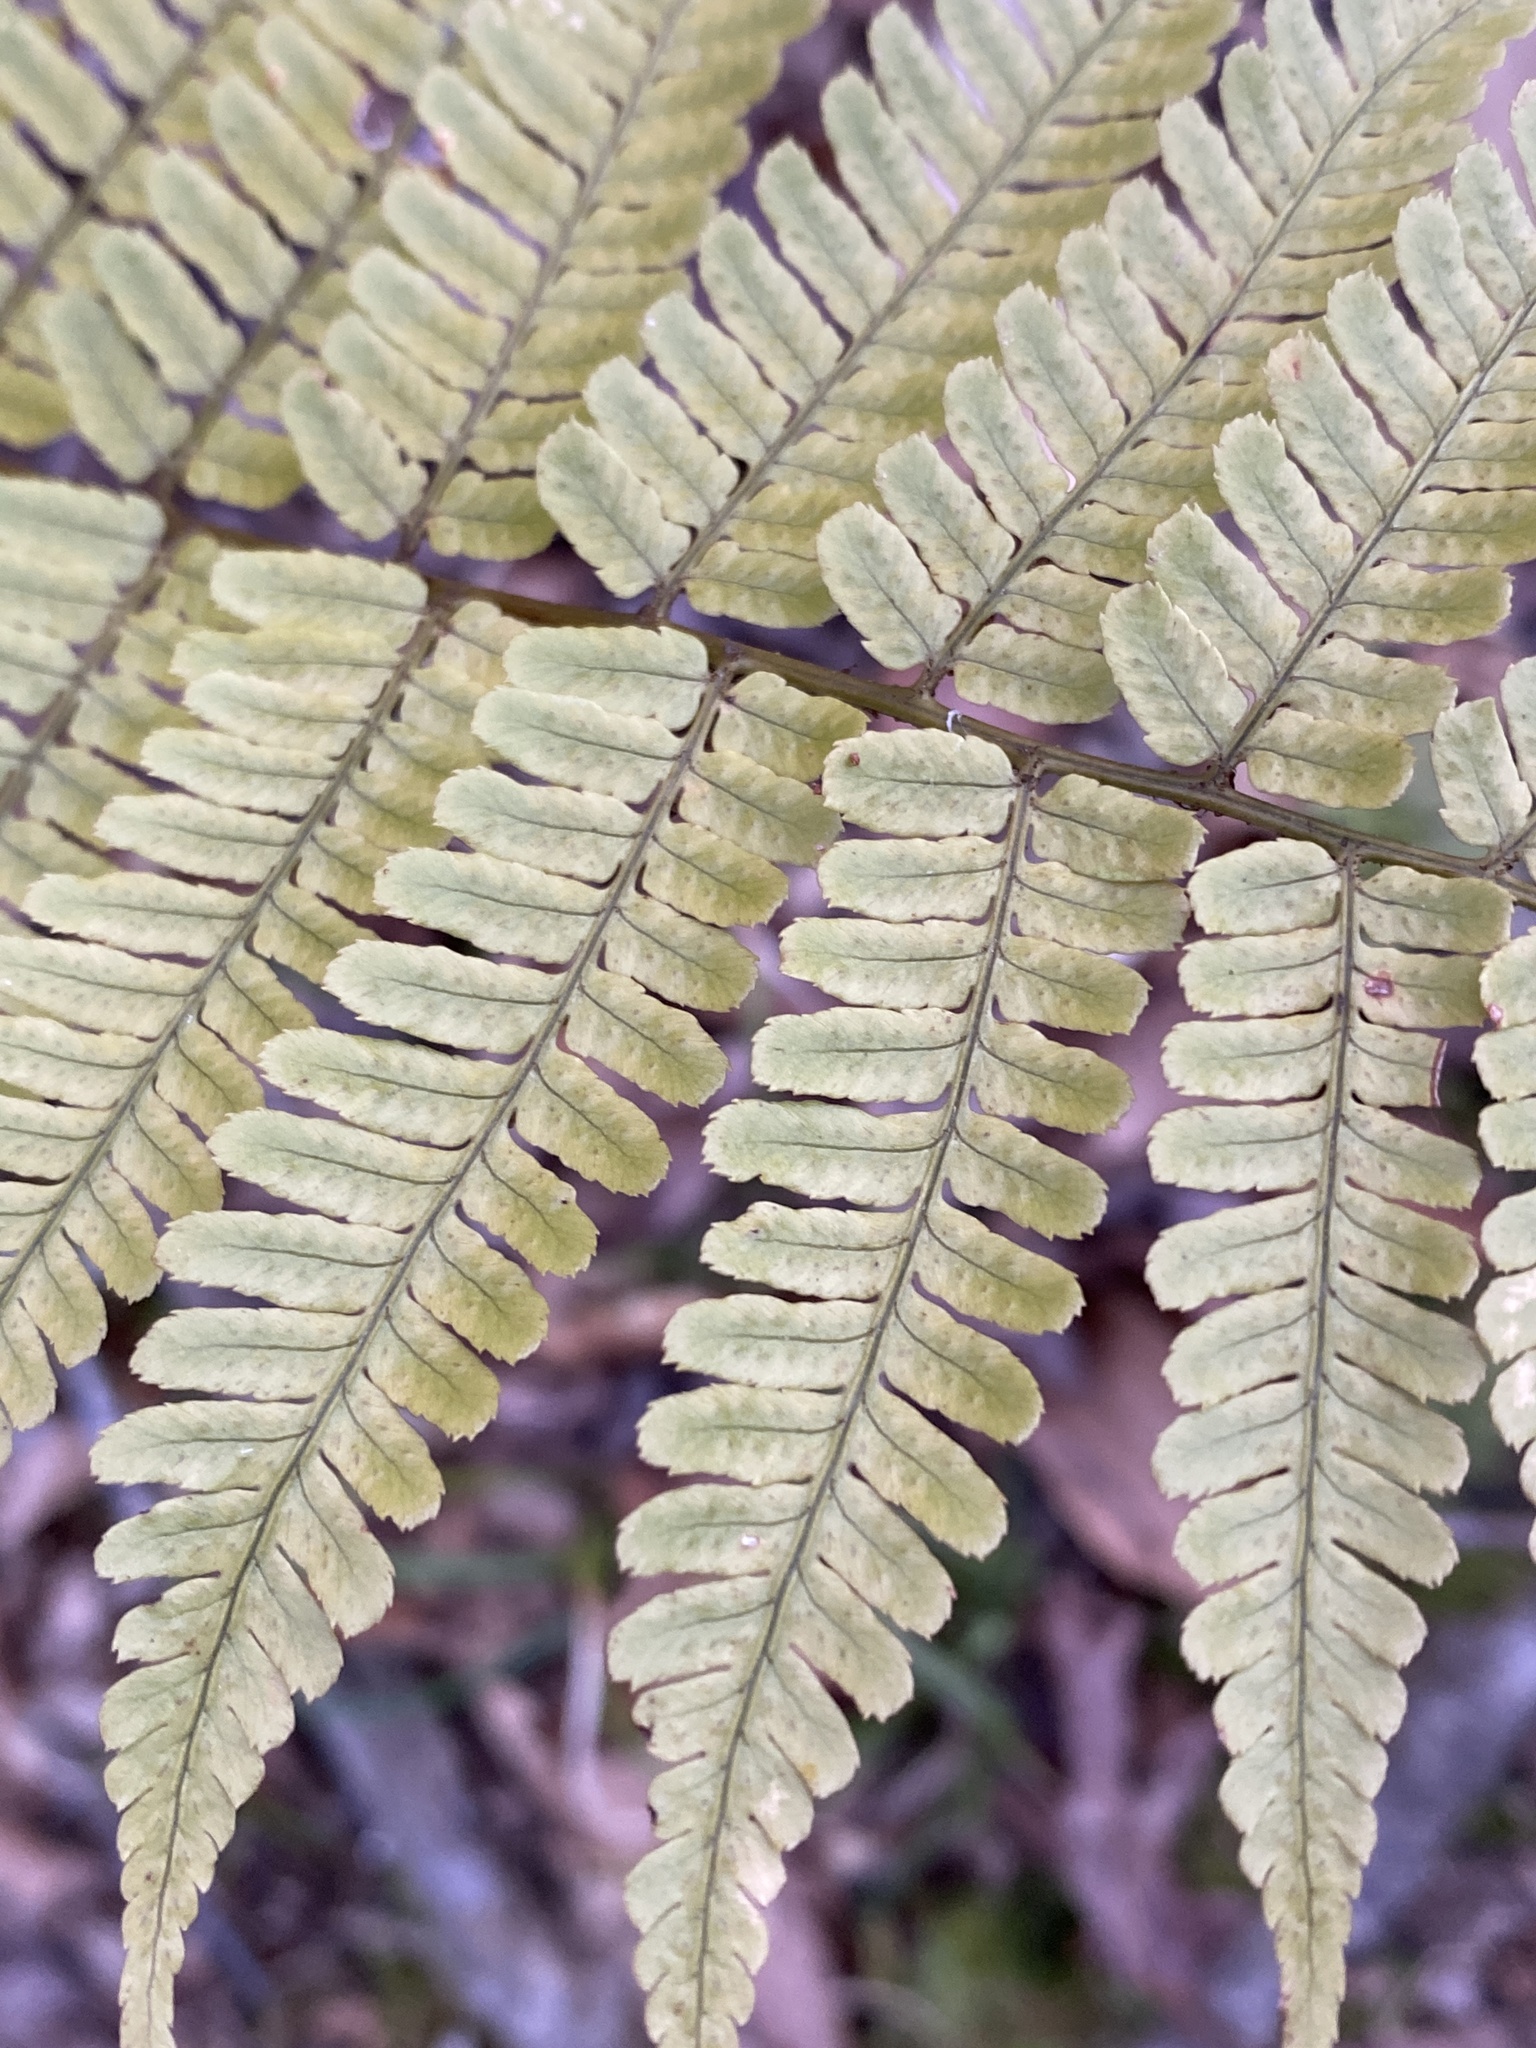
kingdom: Plantae
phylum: Tracheophyta
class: Polypodiopsida
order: Polypodiales
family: Dryopteridaceae
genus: Dryopteris
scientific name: Dryopteris erythrosora
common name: Autumn fern
